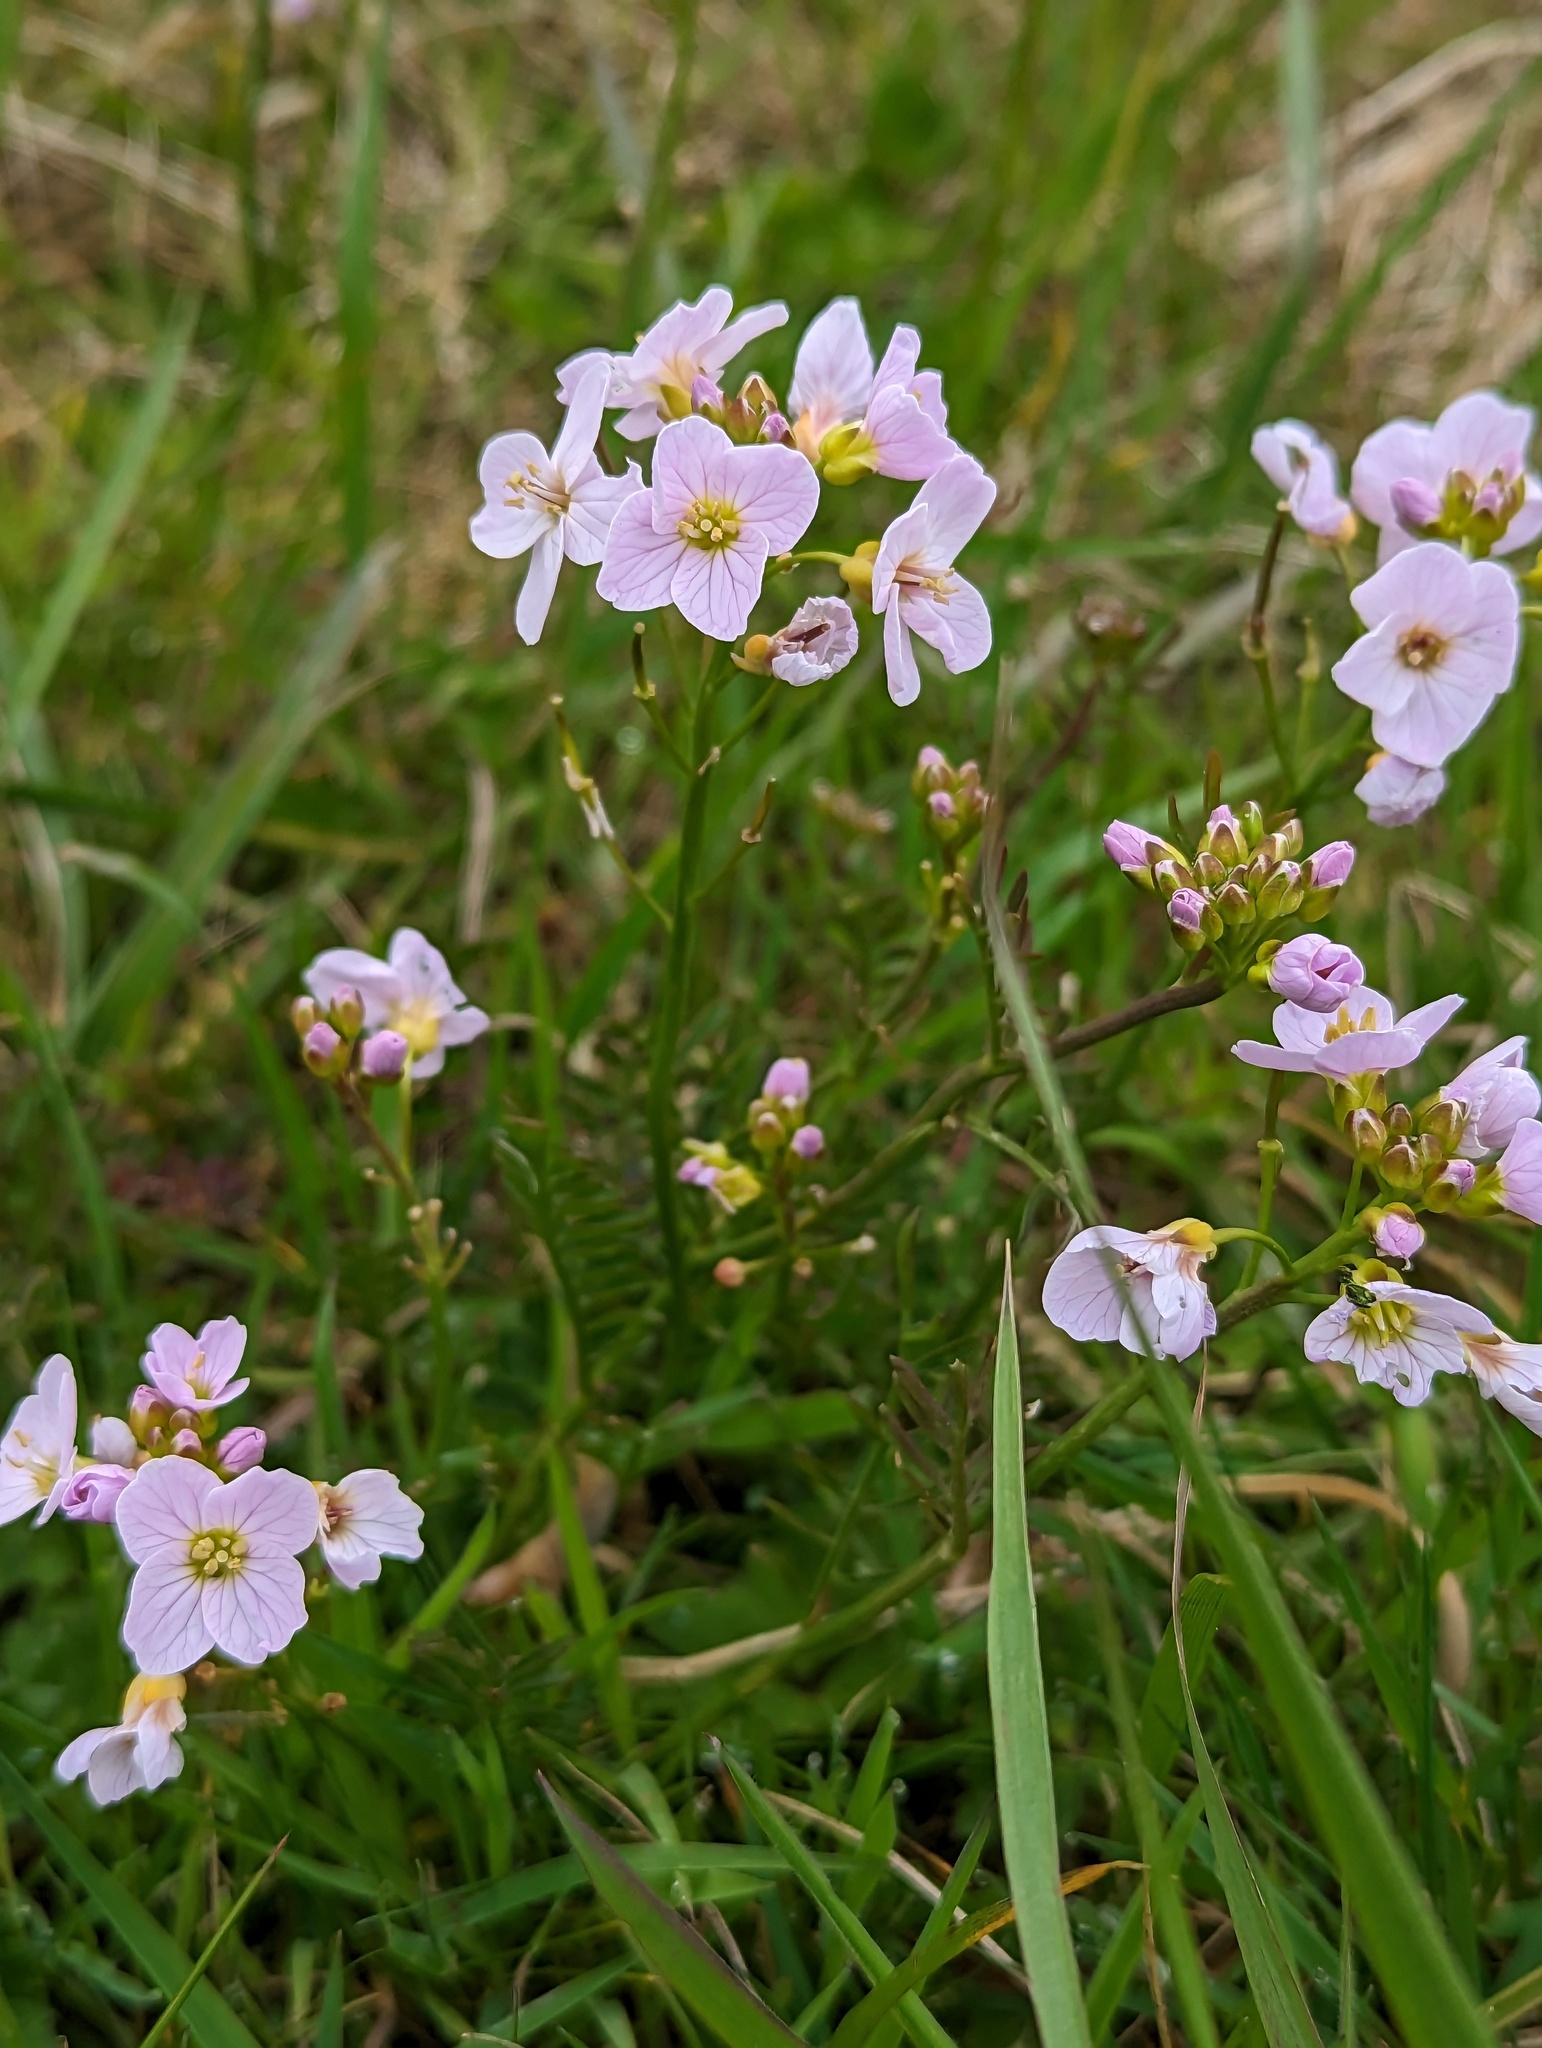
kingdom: Plantae
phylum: Tracheophyta
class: Magnoliopsida
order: Brassicales
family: Brassicaceae
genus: Cardamine
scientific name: Cardamine pratensis
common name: Cuckoo flower
